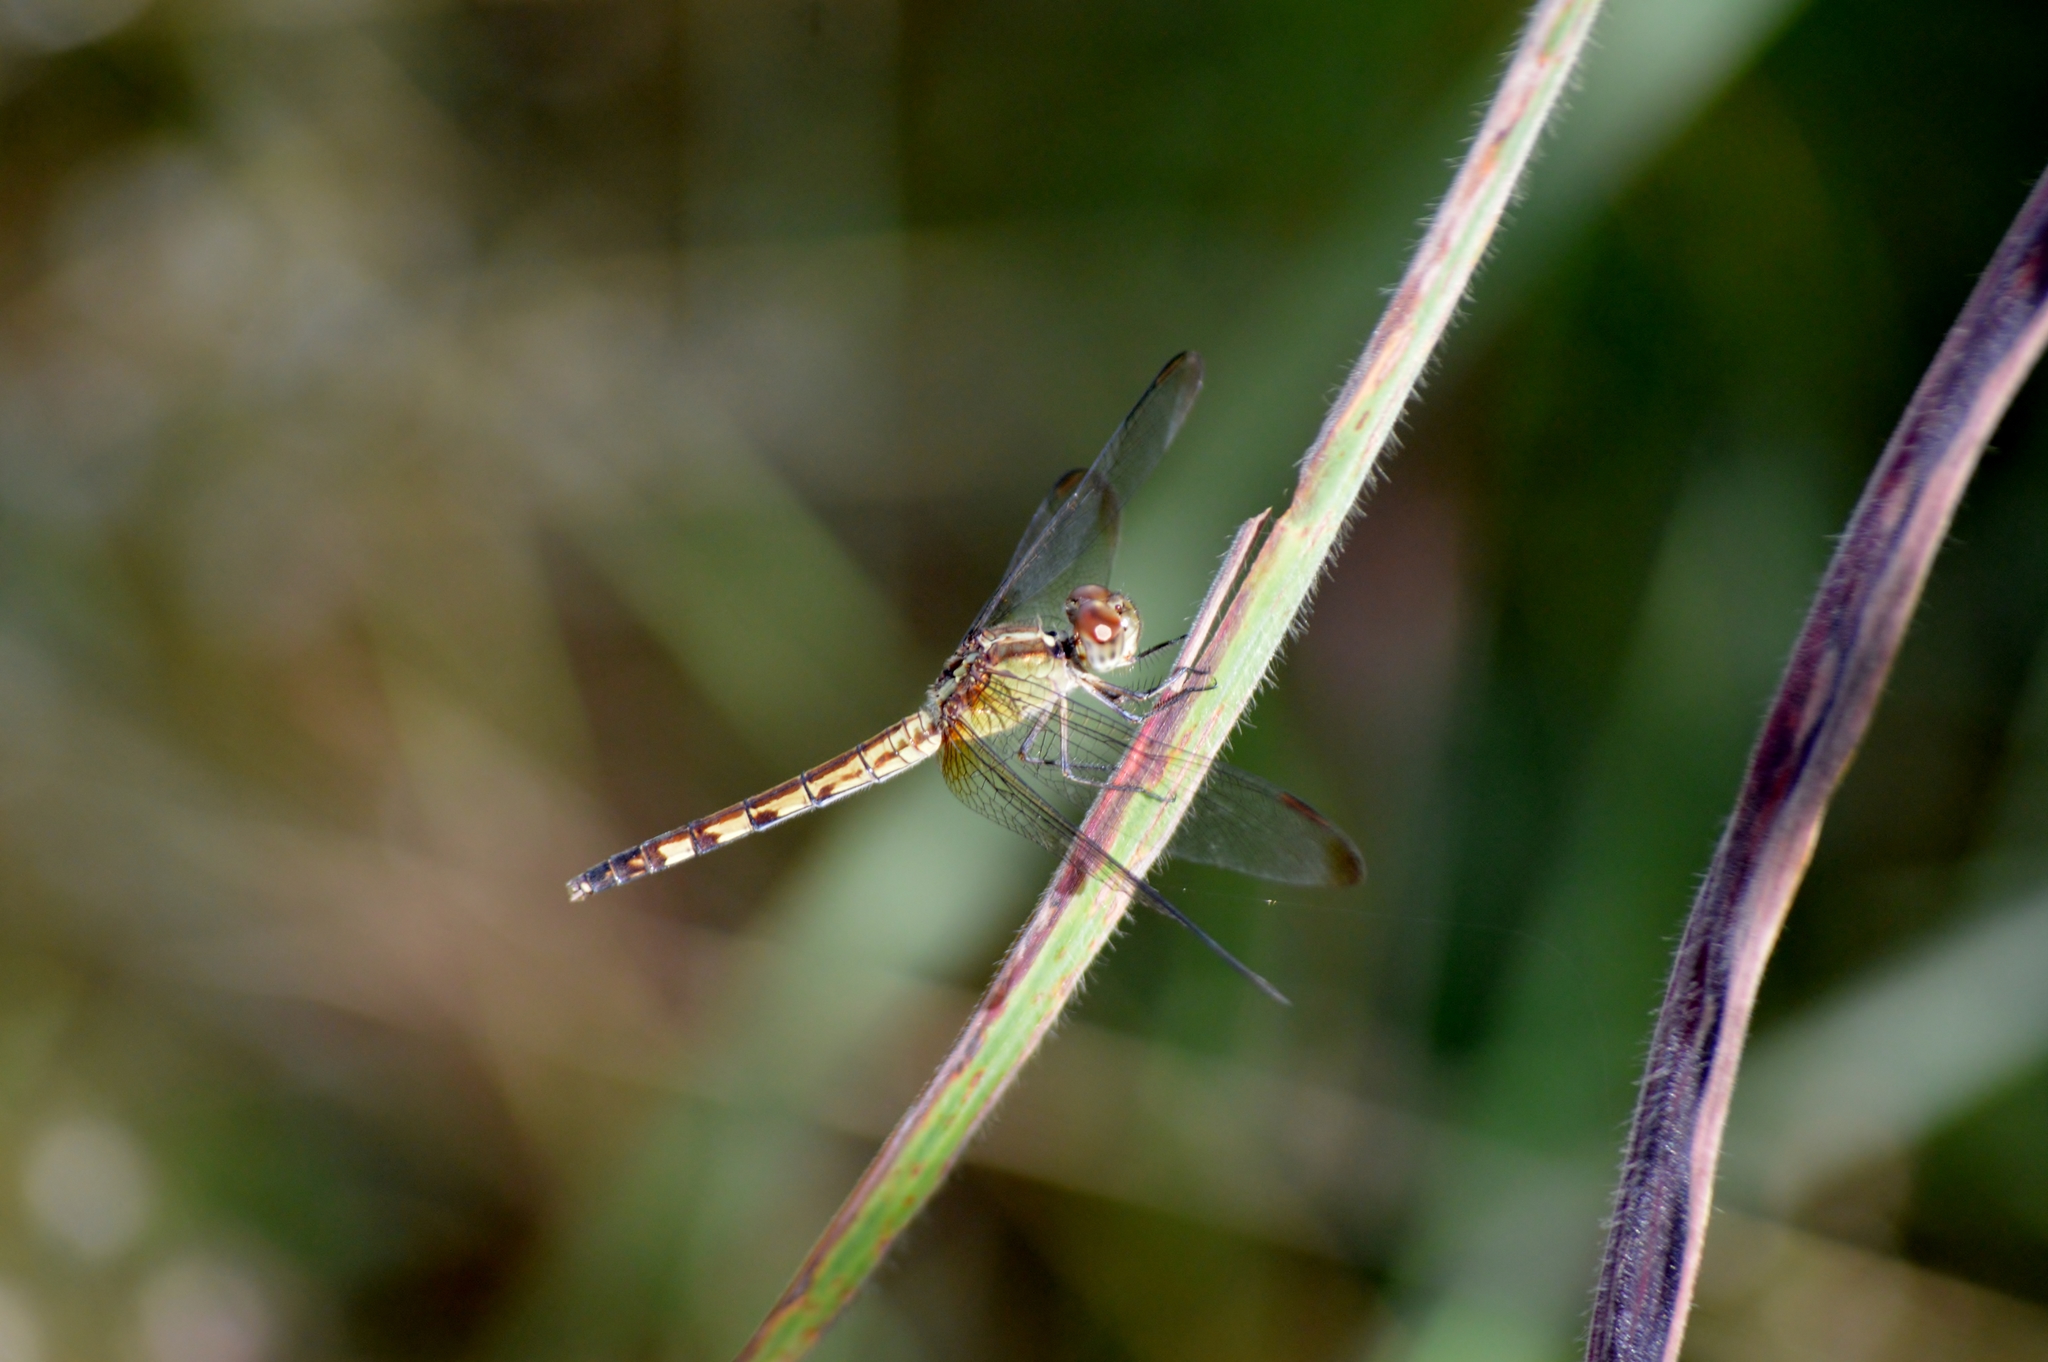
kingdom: Animalia
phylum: Arthropoda
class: Insecta
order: Odonata
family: Libellulidae
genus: Erythrodiplax
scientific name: Erythrodiplax umbrata
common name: Band-winged dragonlet
